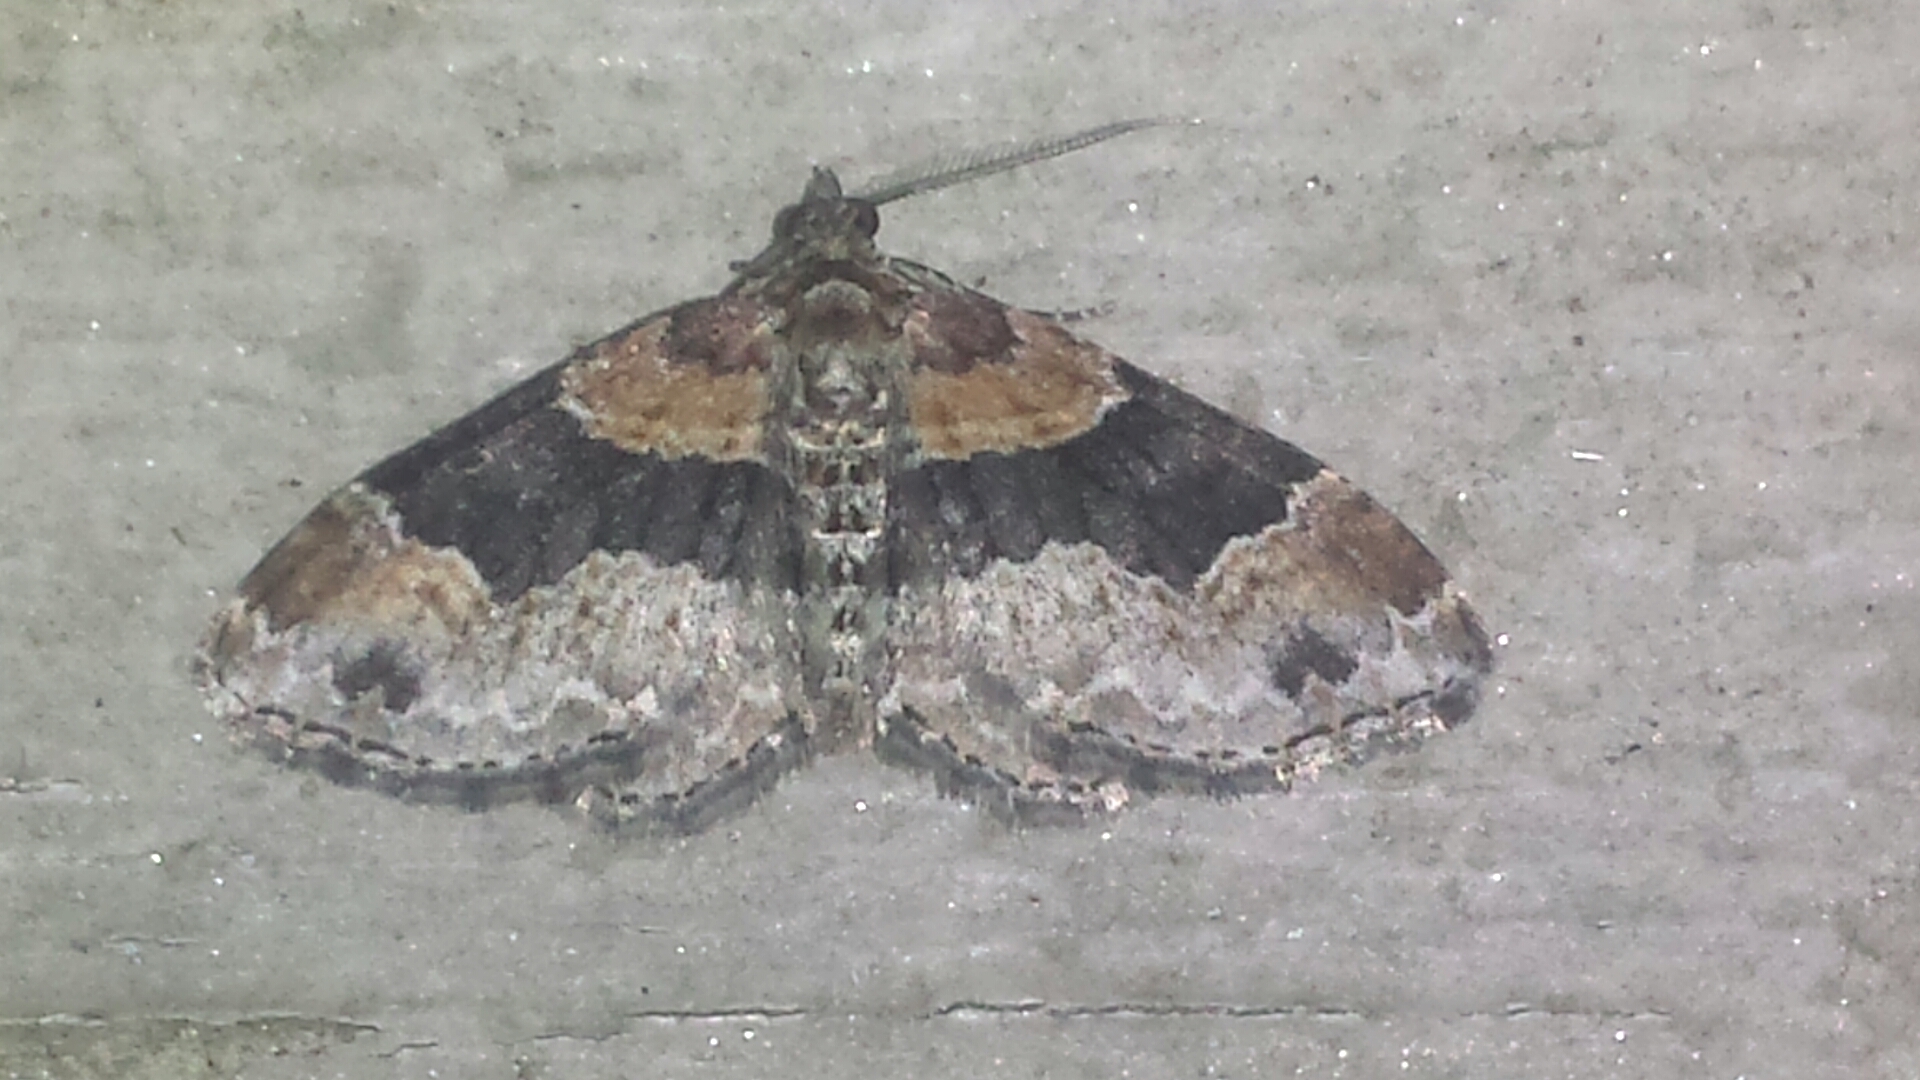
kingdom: Animalia
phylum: Arthropoda
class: Insecta
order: Lepidoptera
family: Geometridae
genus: Xanthorhoe
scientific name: Xanthorhoe ferrugata
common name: Dark-barred twin-spot carpet
